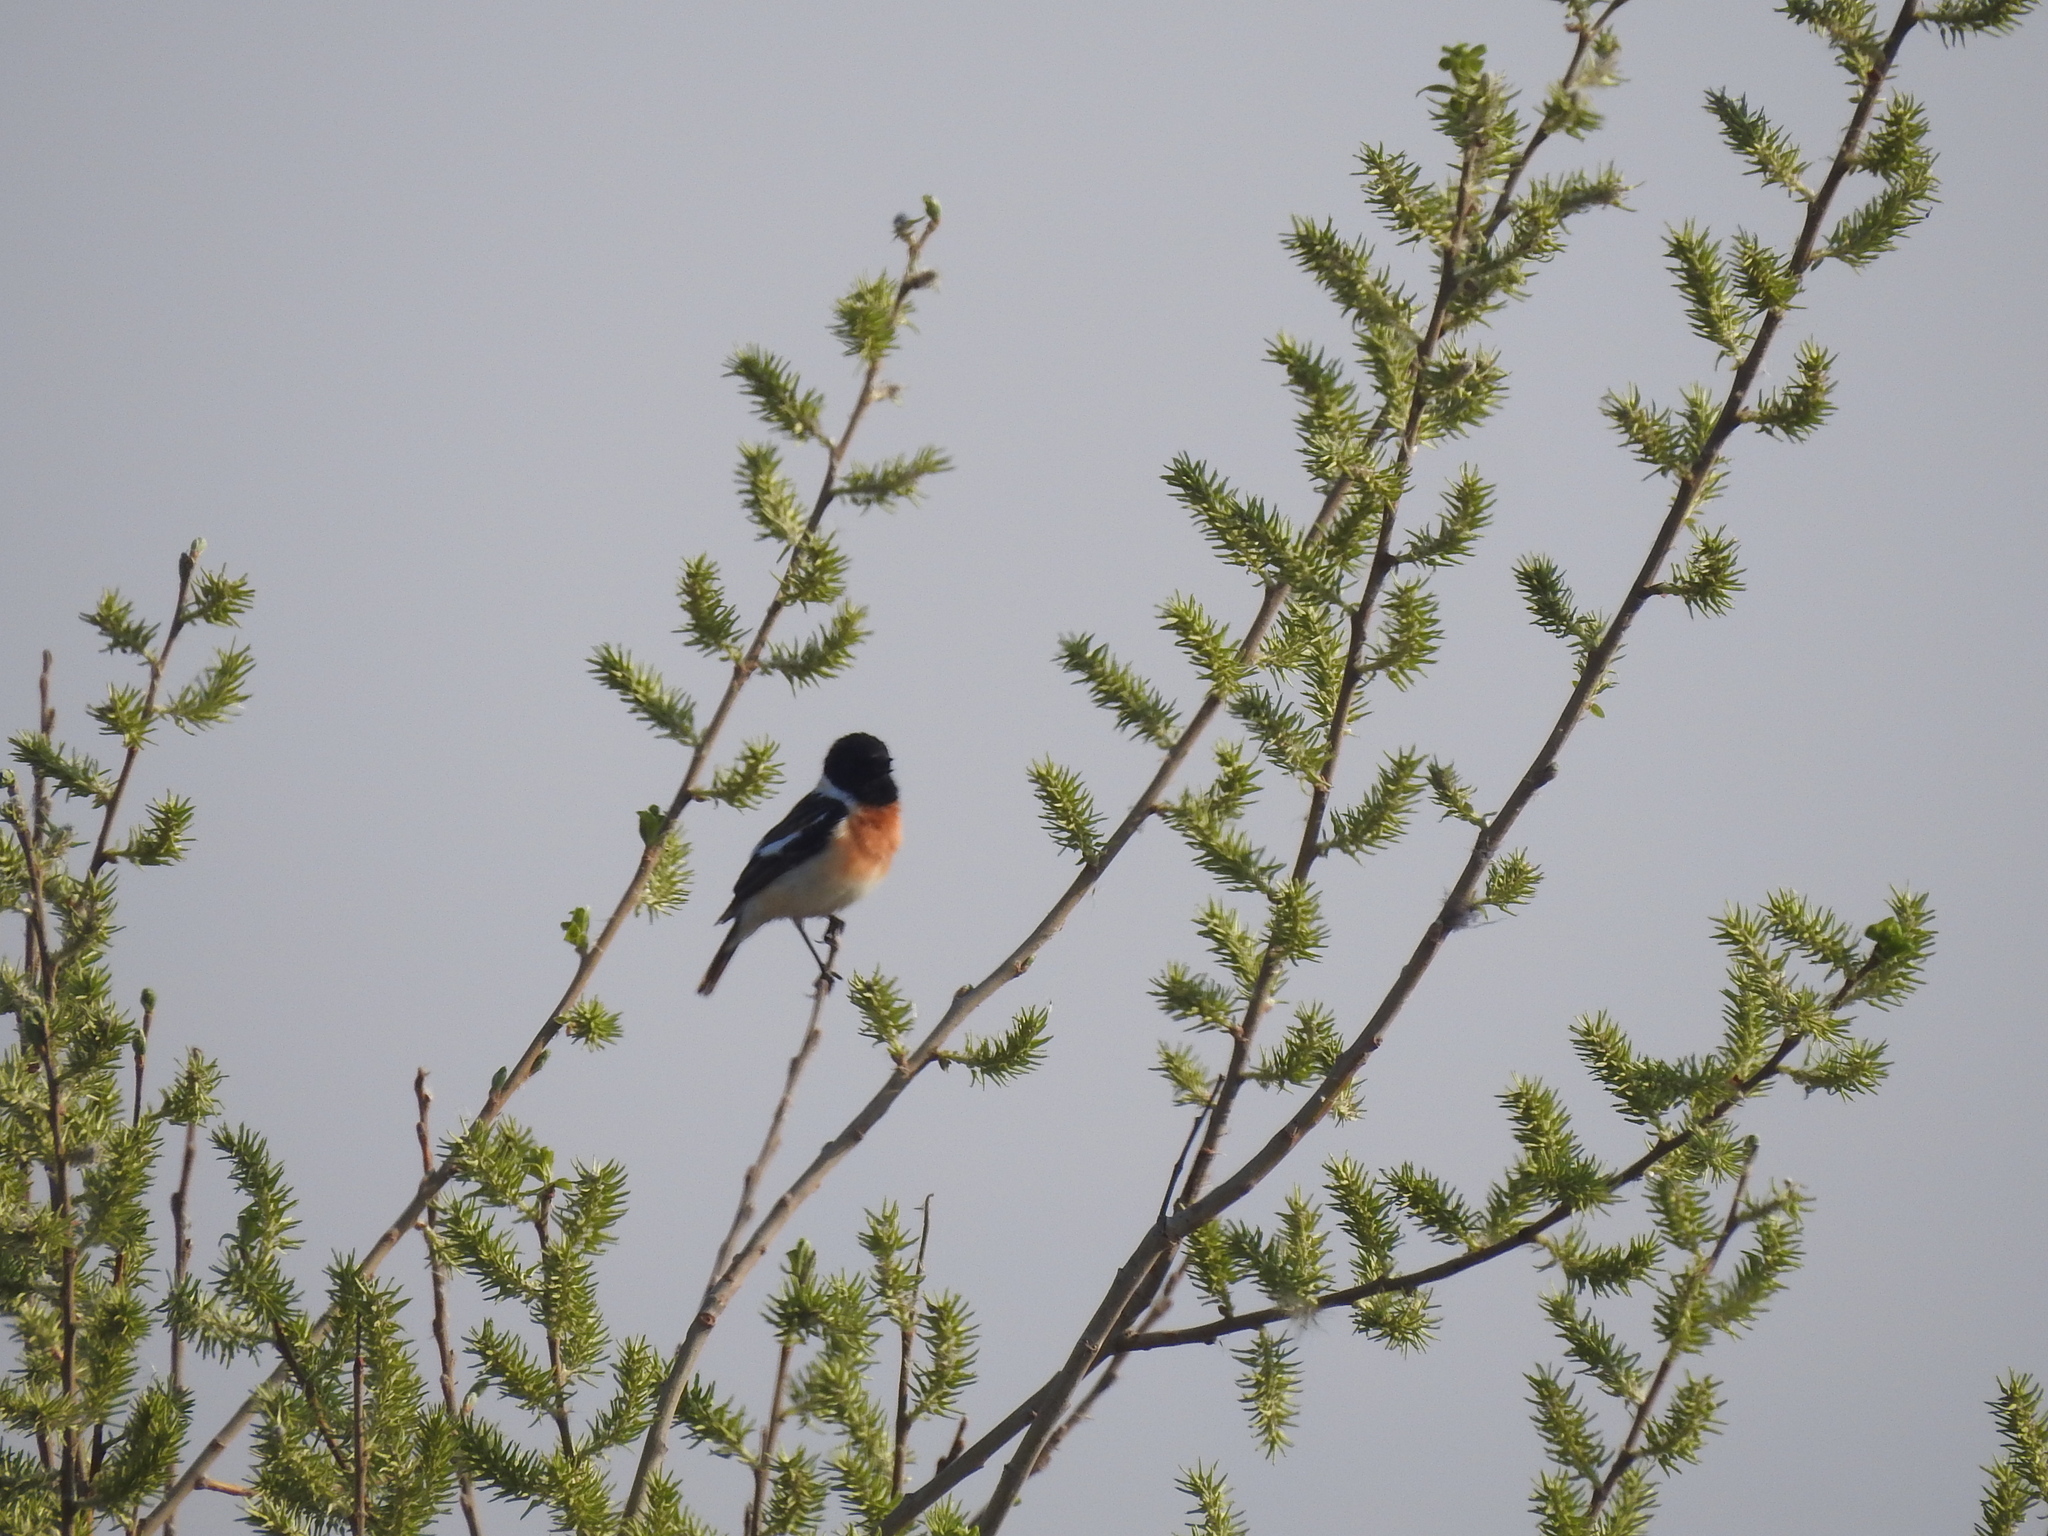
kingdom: Animalia
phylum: Chordata
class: Aves
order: Passeriformes
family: Muscicapidae
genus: Saxicola
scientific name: Saxicola maurus
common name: Siberian stonechat
